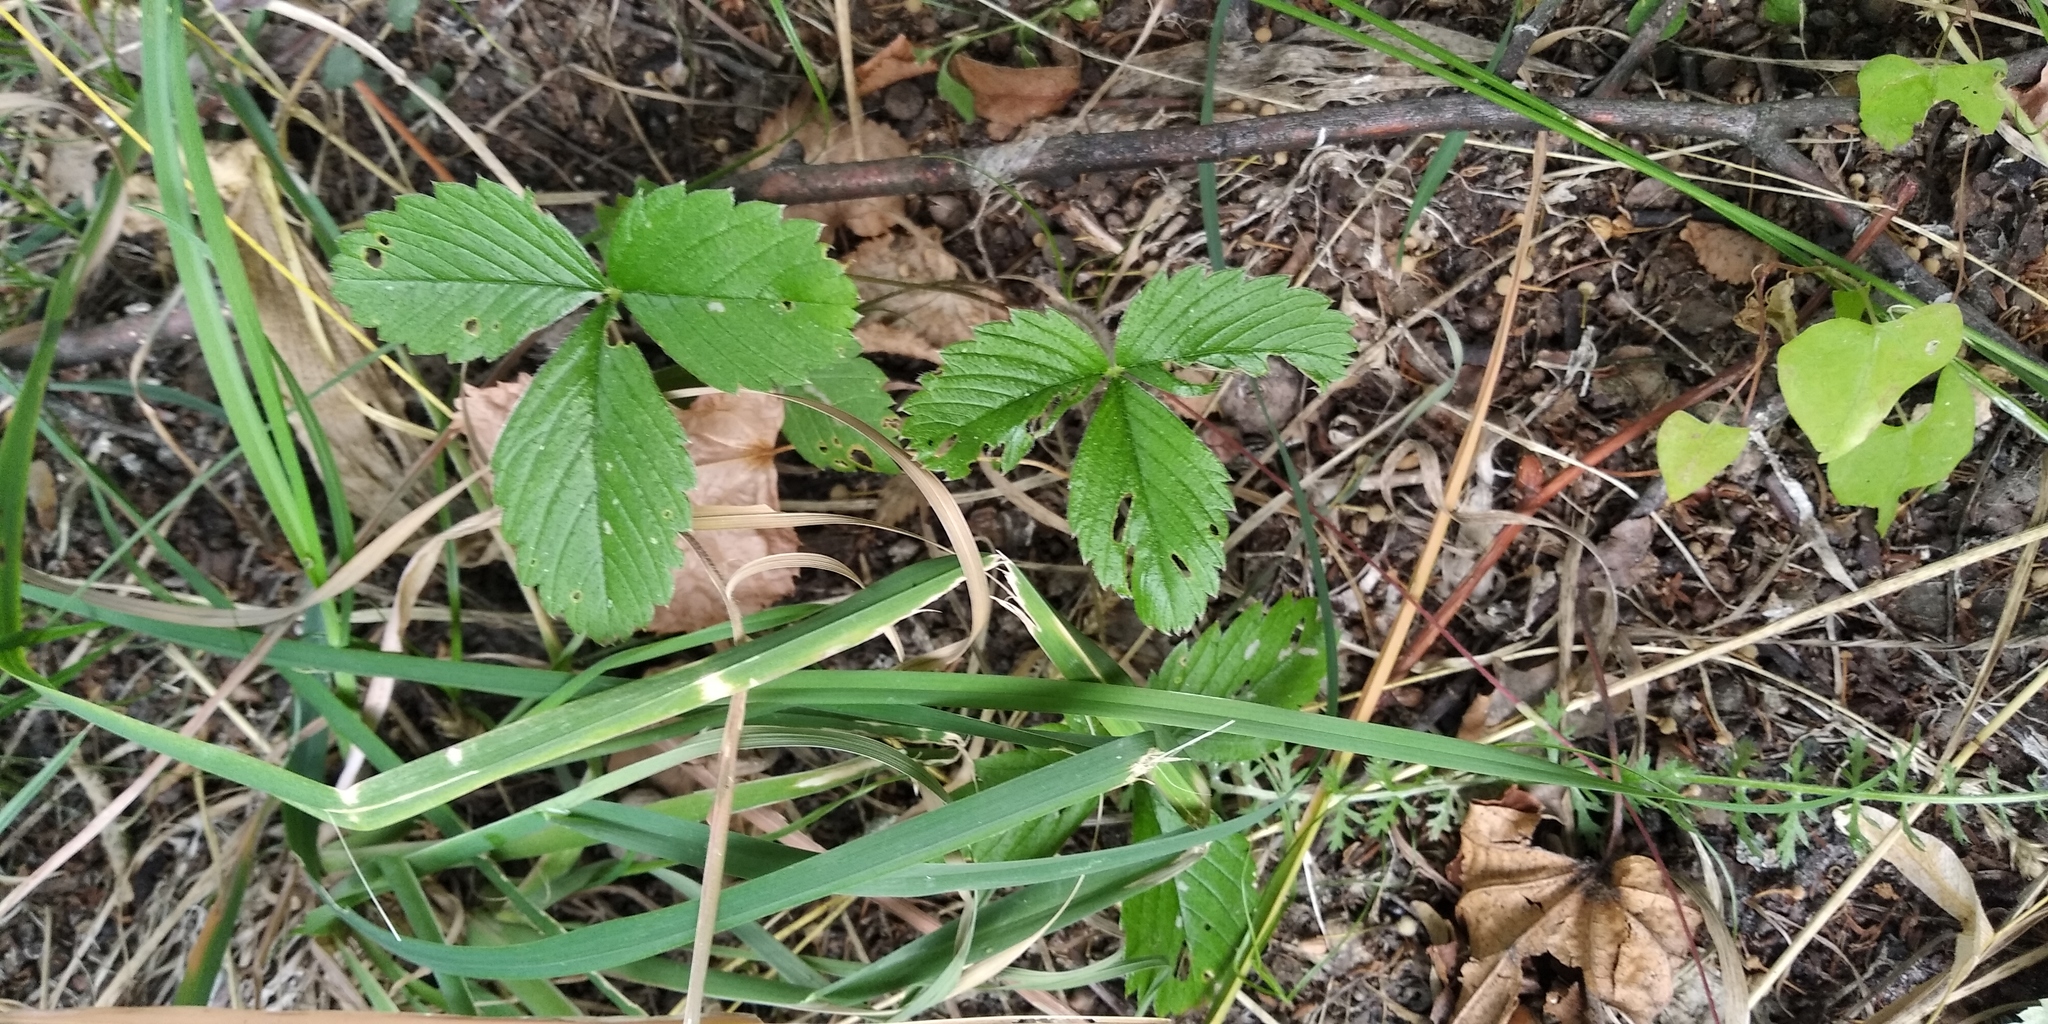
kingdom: Plantae
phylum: Tracheophyta
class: Magnoliopsida
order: Rosales
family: Rosaceae
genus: Fragaria
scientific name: Fragaria vesca
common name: Wild strawberry
